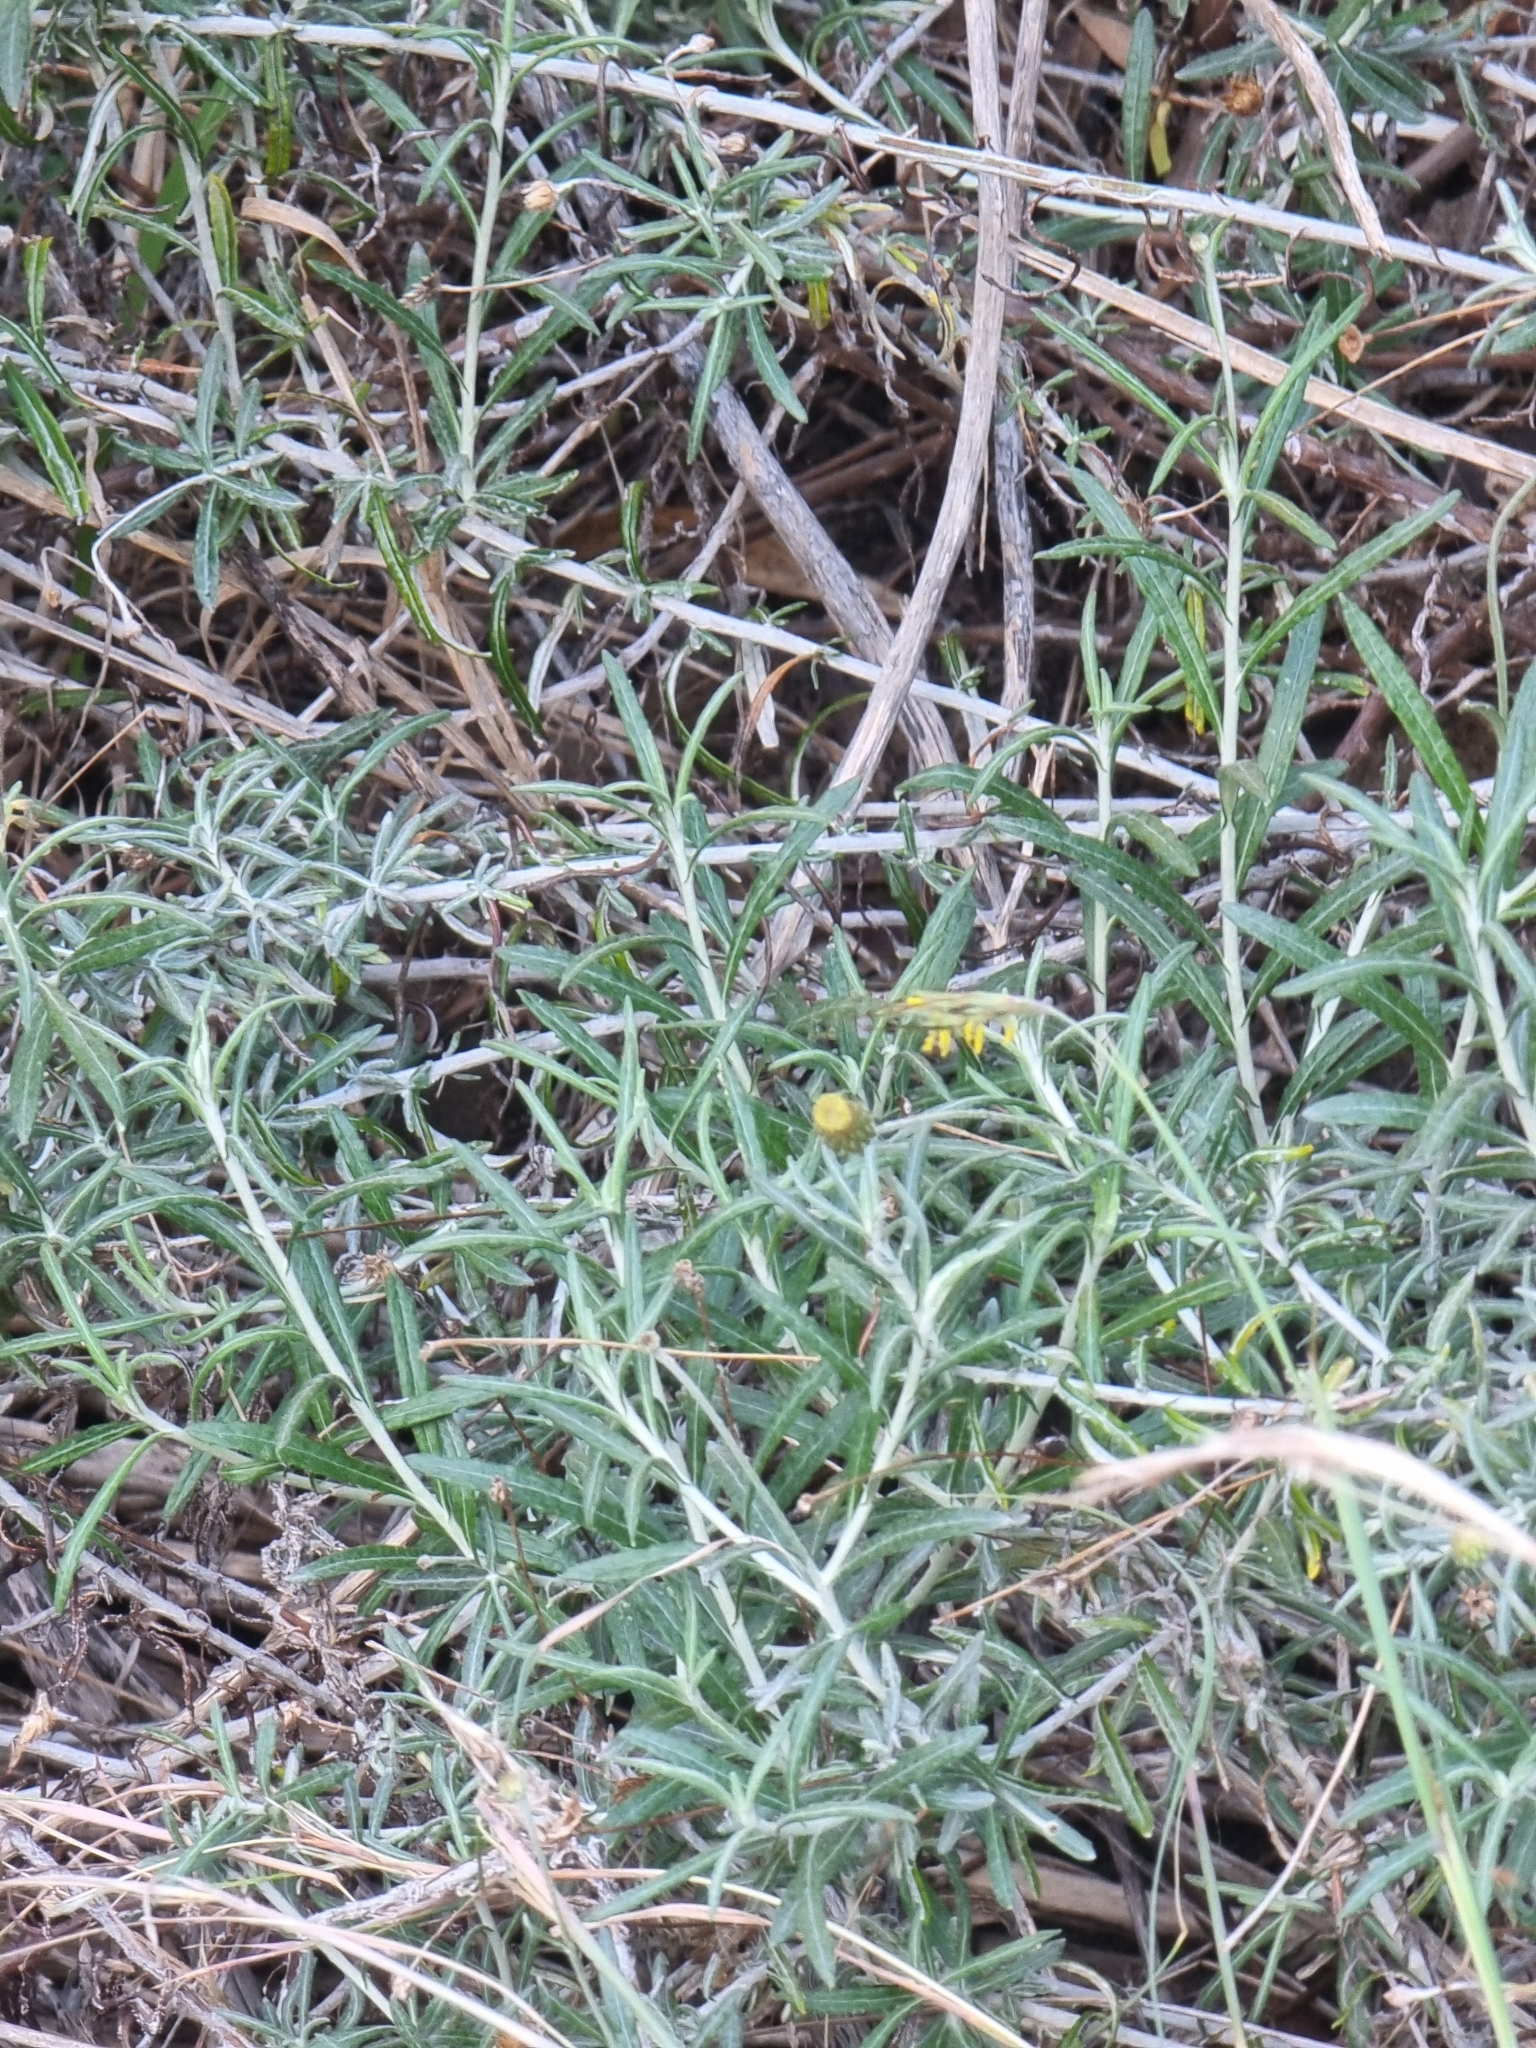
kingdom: Plantae
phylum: Tracheophyta
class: Magnoliopsida
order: Asterales
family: Asteraceae
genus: Phagnalon
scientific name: Phagnalon saxatile
